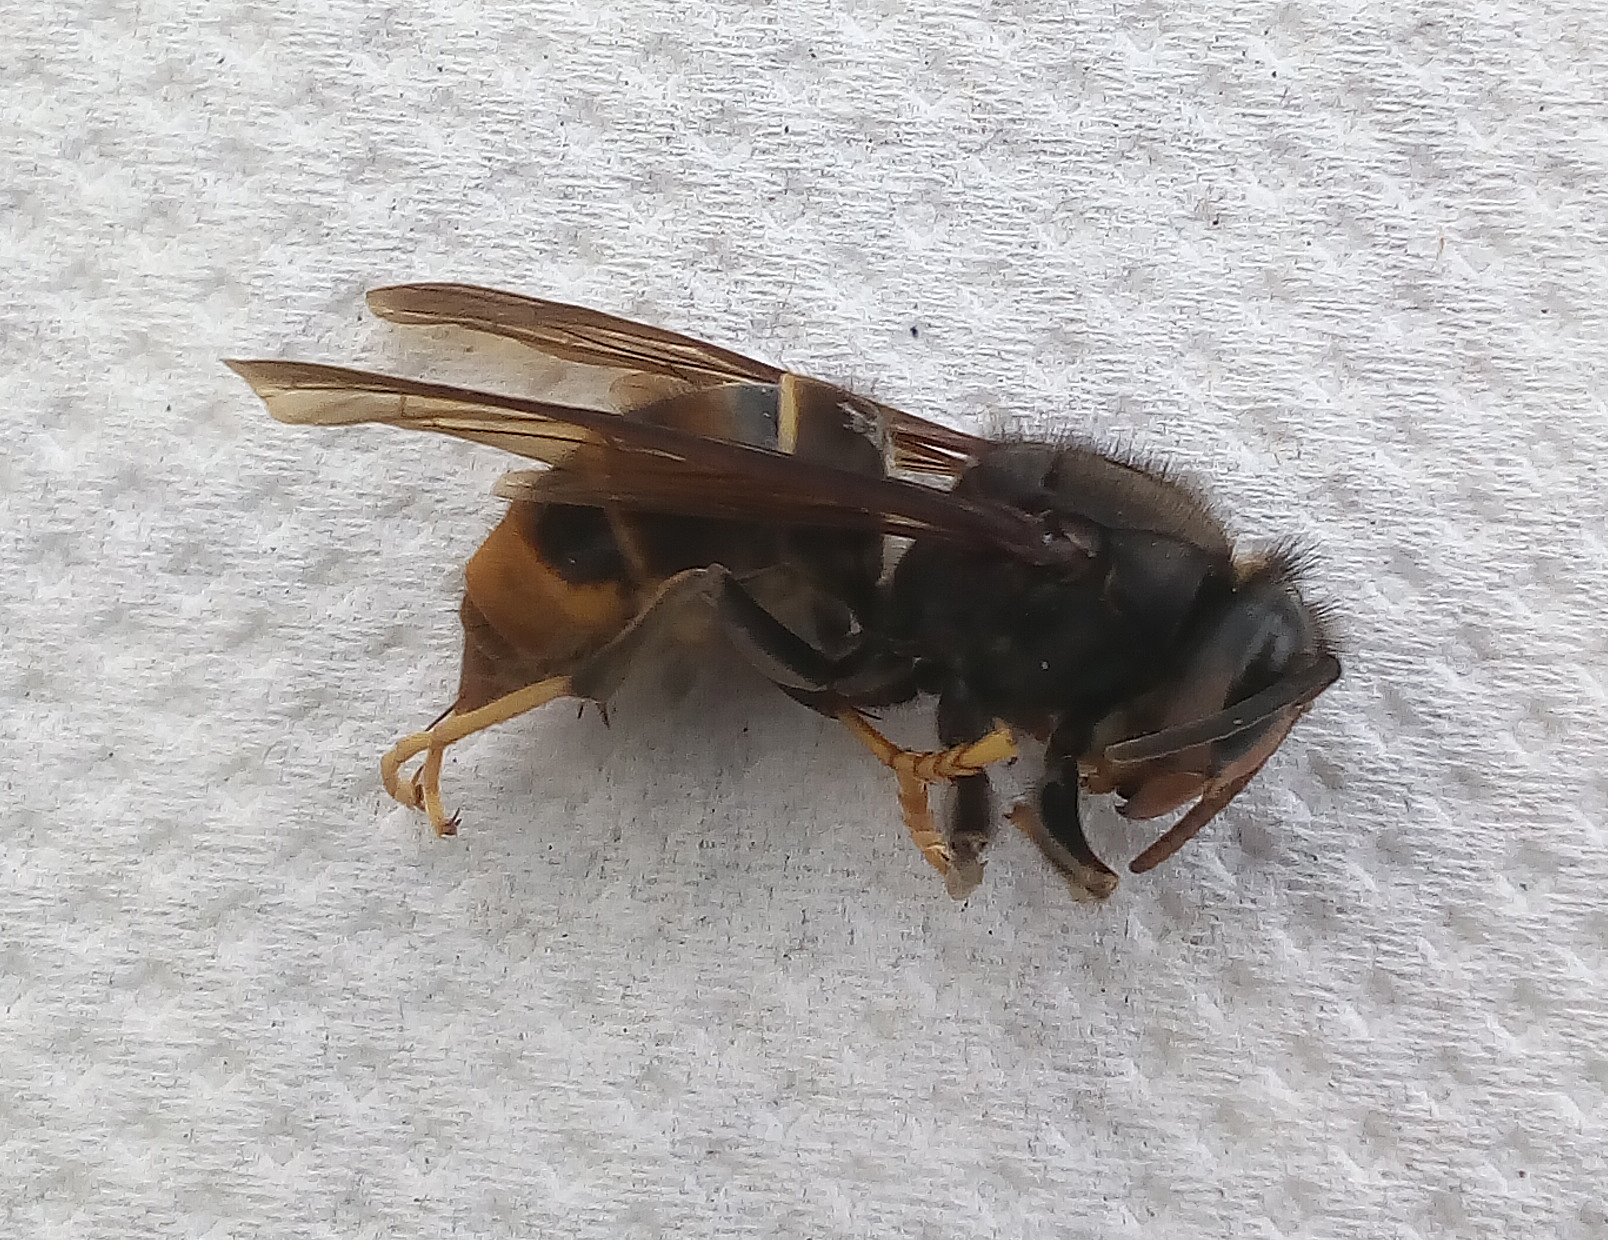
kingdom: Animalia
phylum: Arthropoda
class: Insecta
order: Hymenoptera
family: Vespidae
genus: Vespa
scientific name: Vespa velutina
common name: Asian hornet
